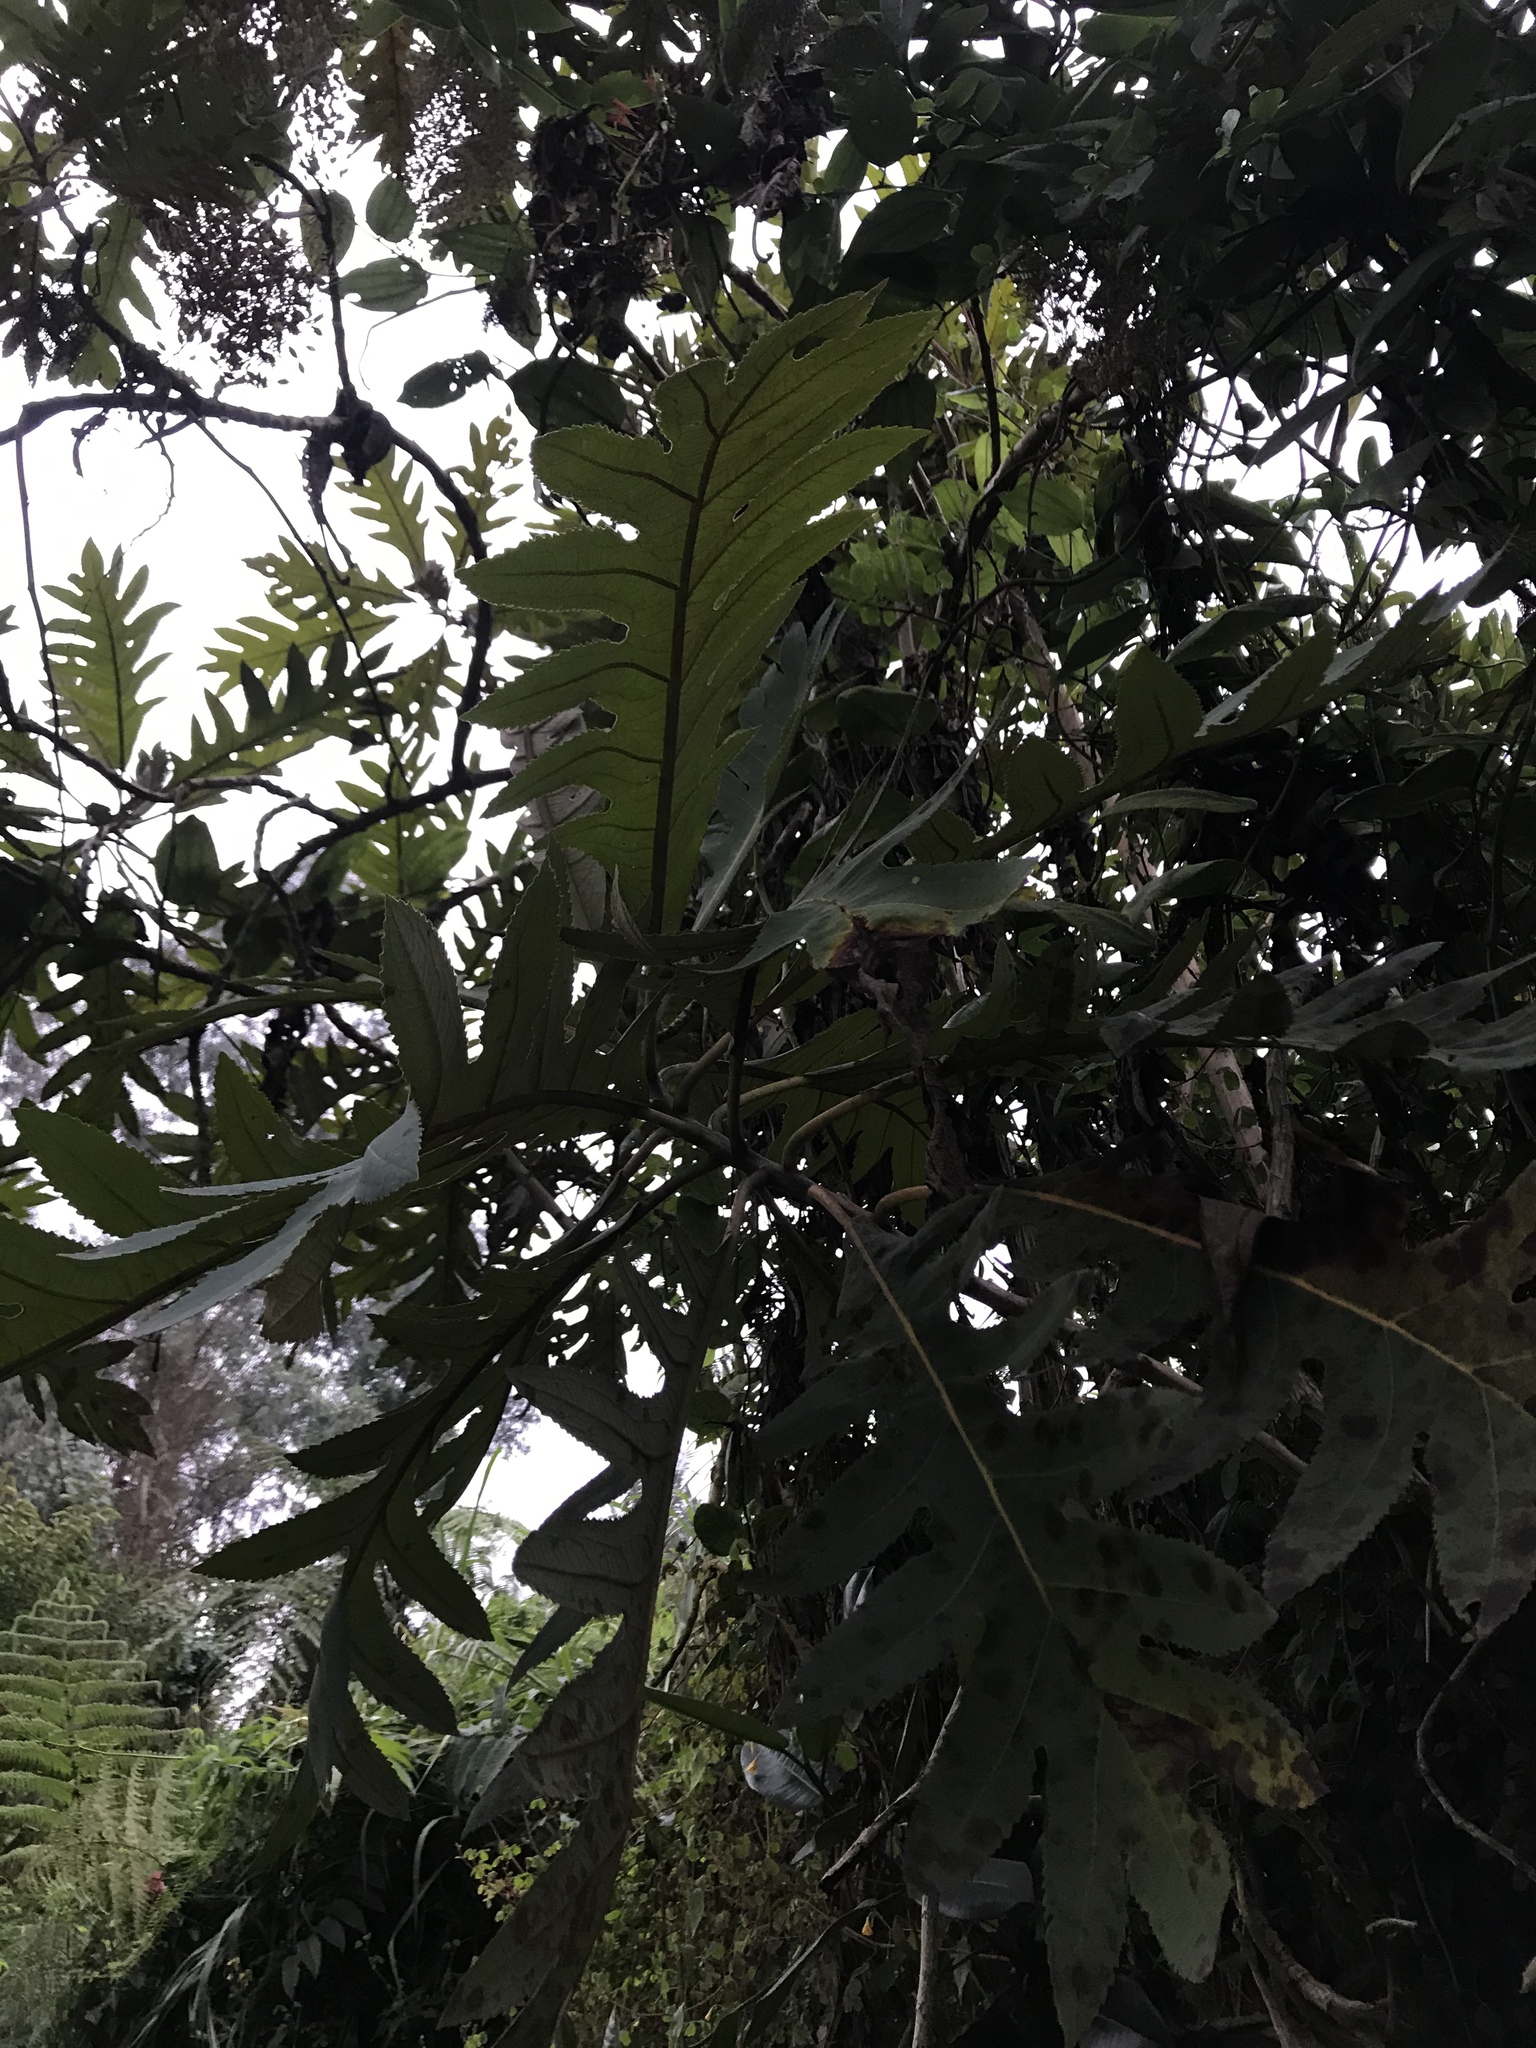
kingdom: Plantae
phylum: Tracheophyta
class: Magnoliopsida
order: Ranunculales
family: Papaveraceae
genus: Bocconia
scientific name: Bocconia frutescens
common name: Tree poppy
